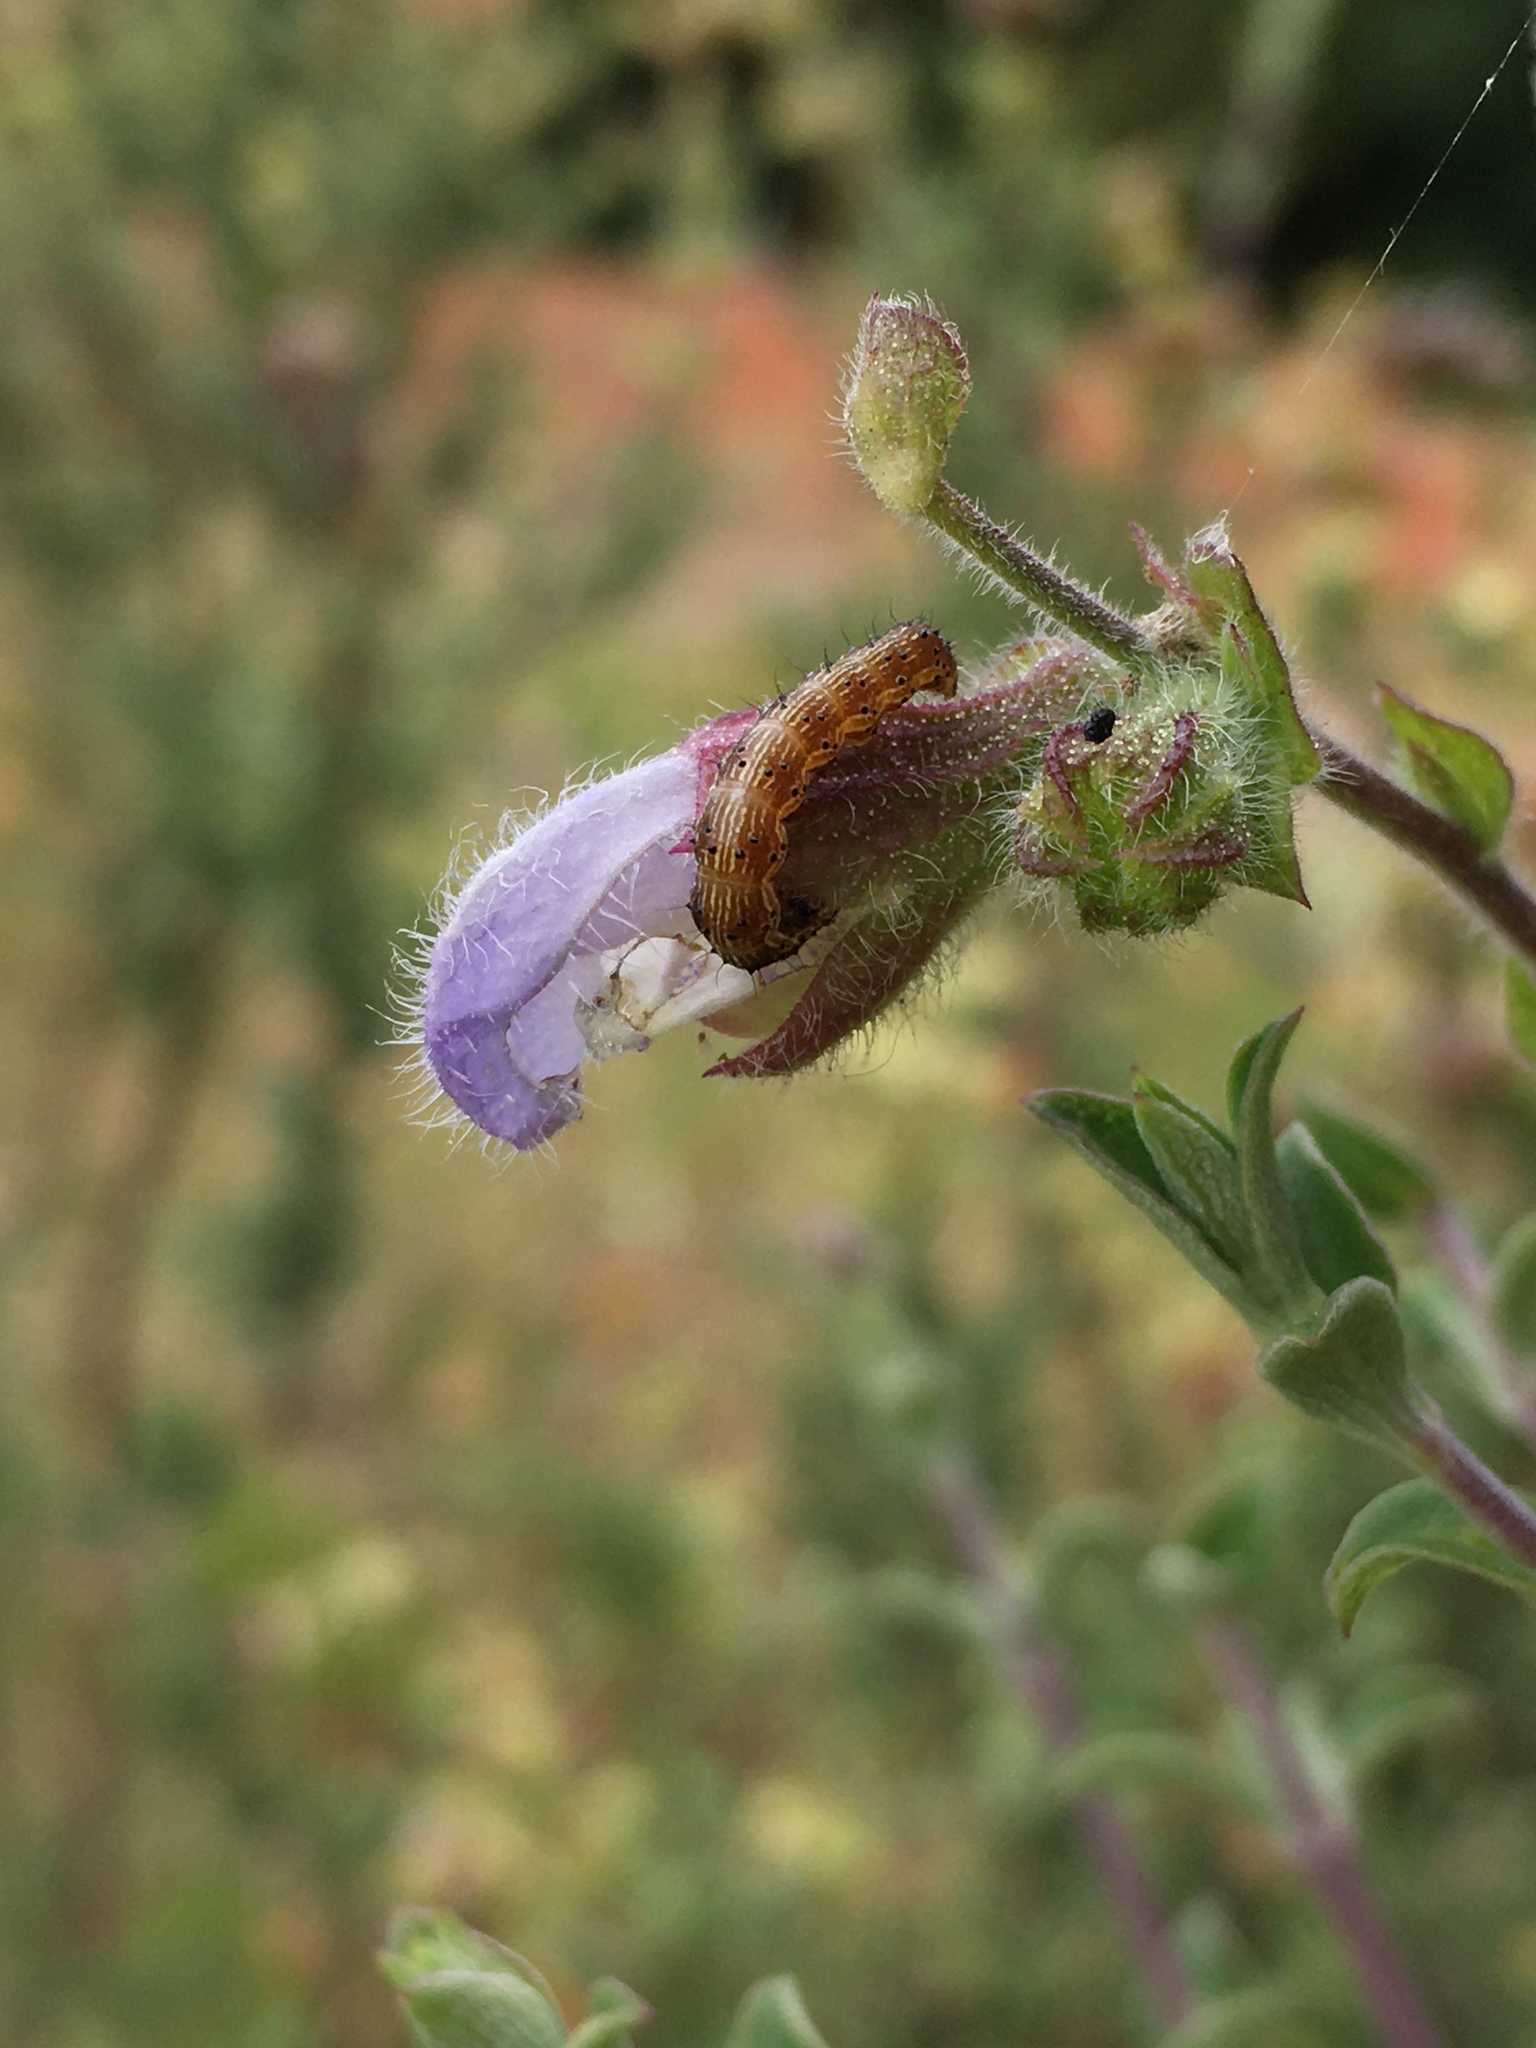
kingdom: Animalia
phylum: Arthropoda
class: Insecta
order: Lepidoptera
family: Noctuidae
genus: Helicoverpa
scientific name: Helicoverpa armigera
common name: Cotton bollworm
